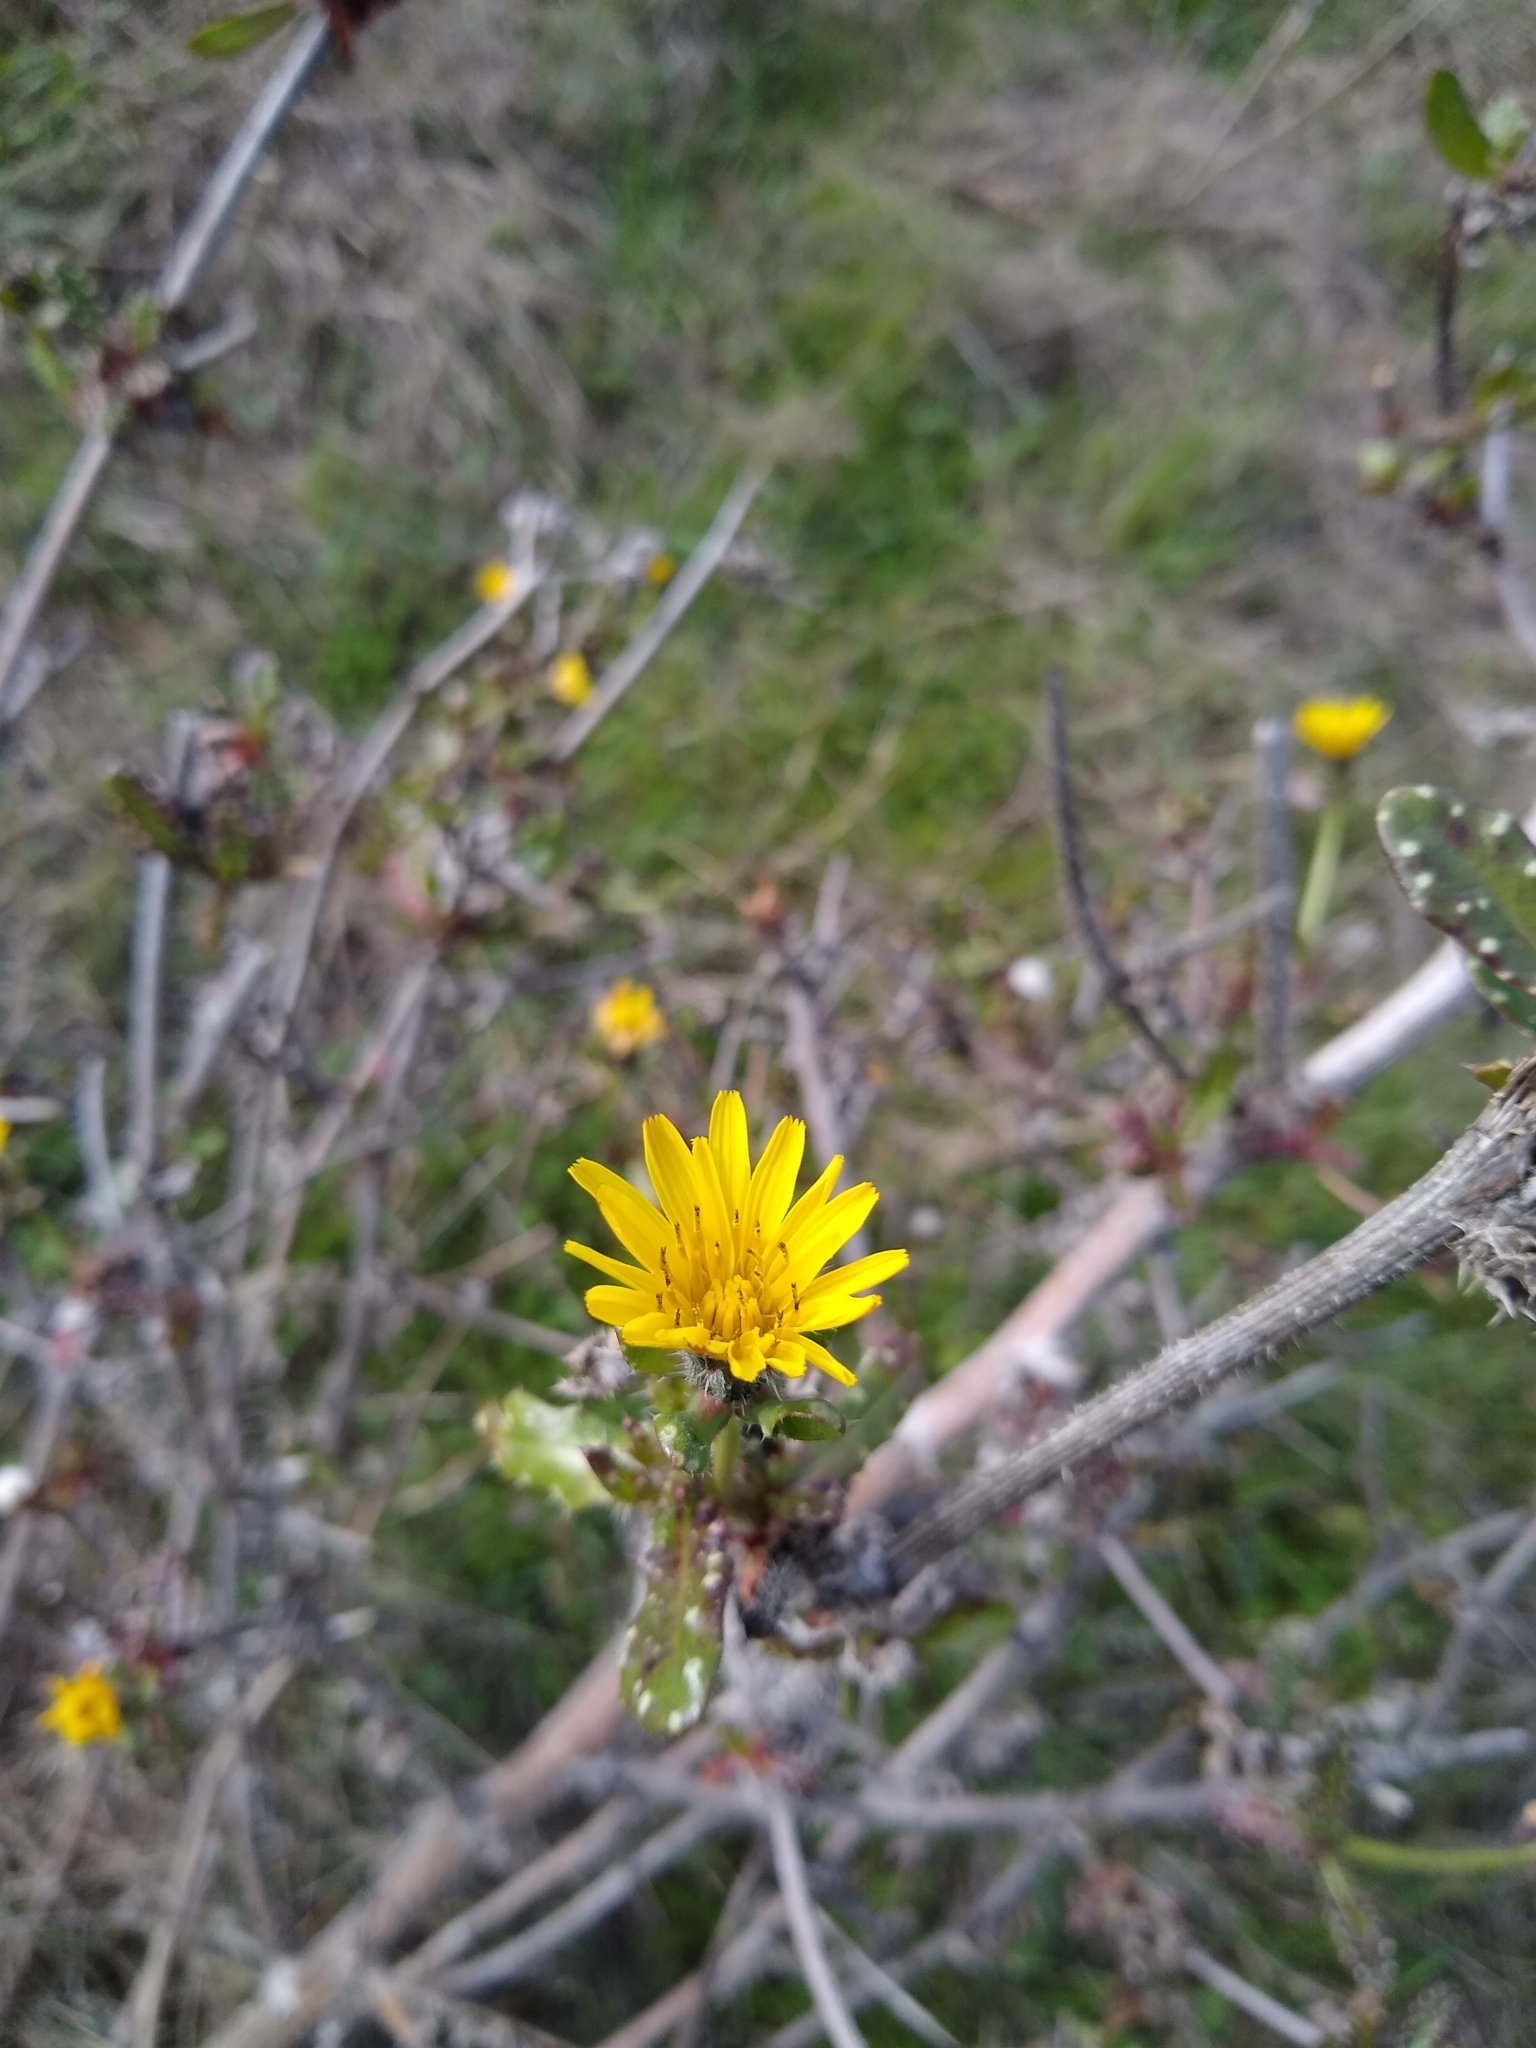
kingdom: Plantae
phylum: Tracheophyta
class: Magnoliopsida
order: Asterales
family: Asteraceae
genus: Helminthotheca
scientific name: Helminthotheca echioides
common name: Ox-tongue
